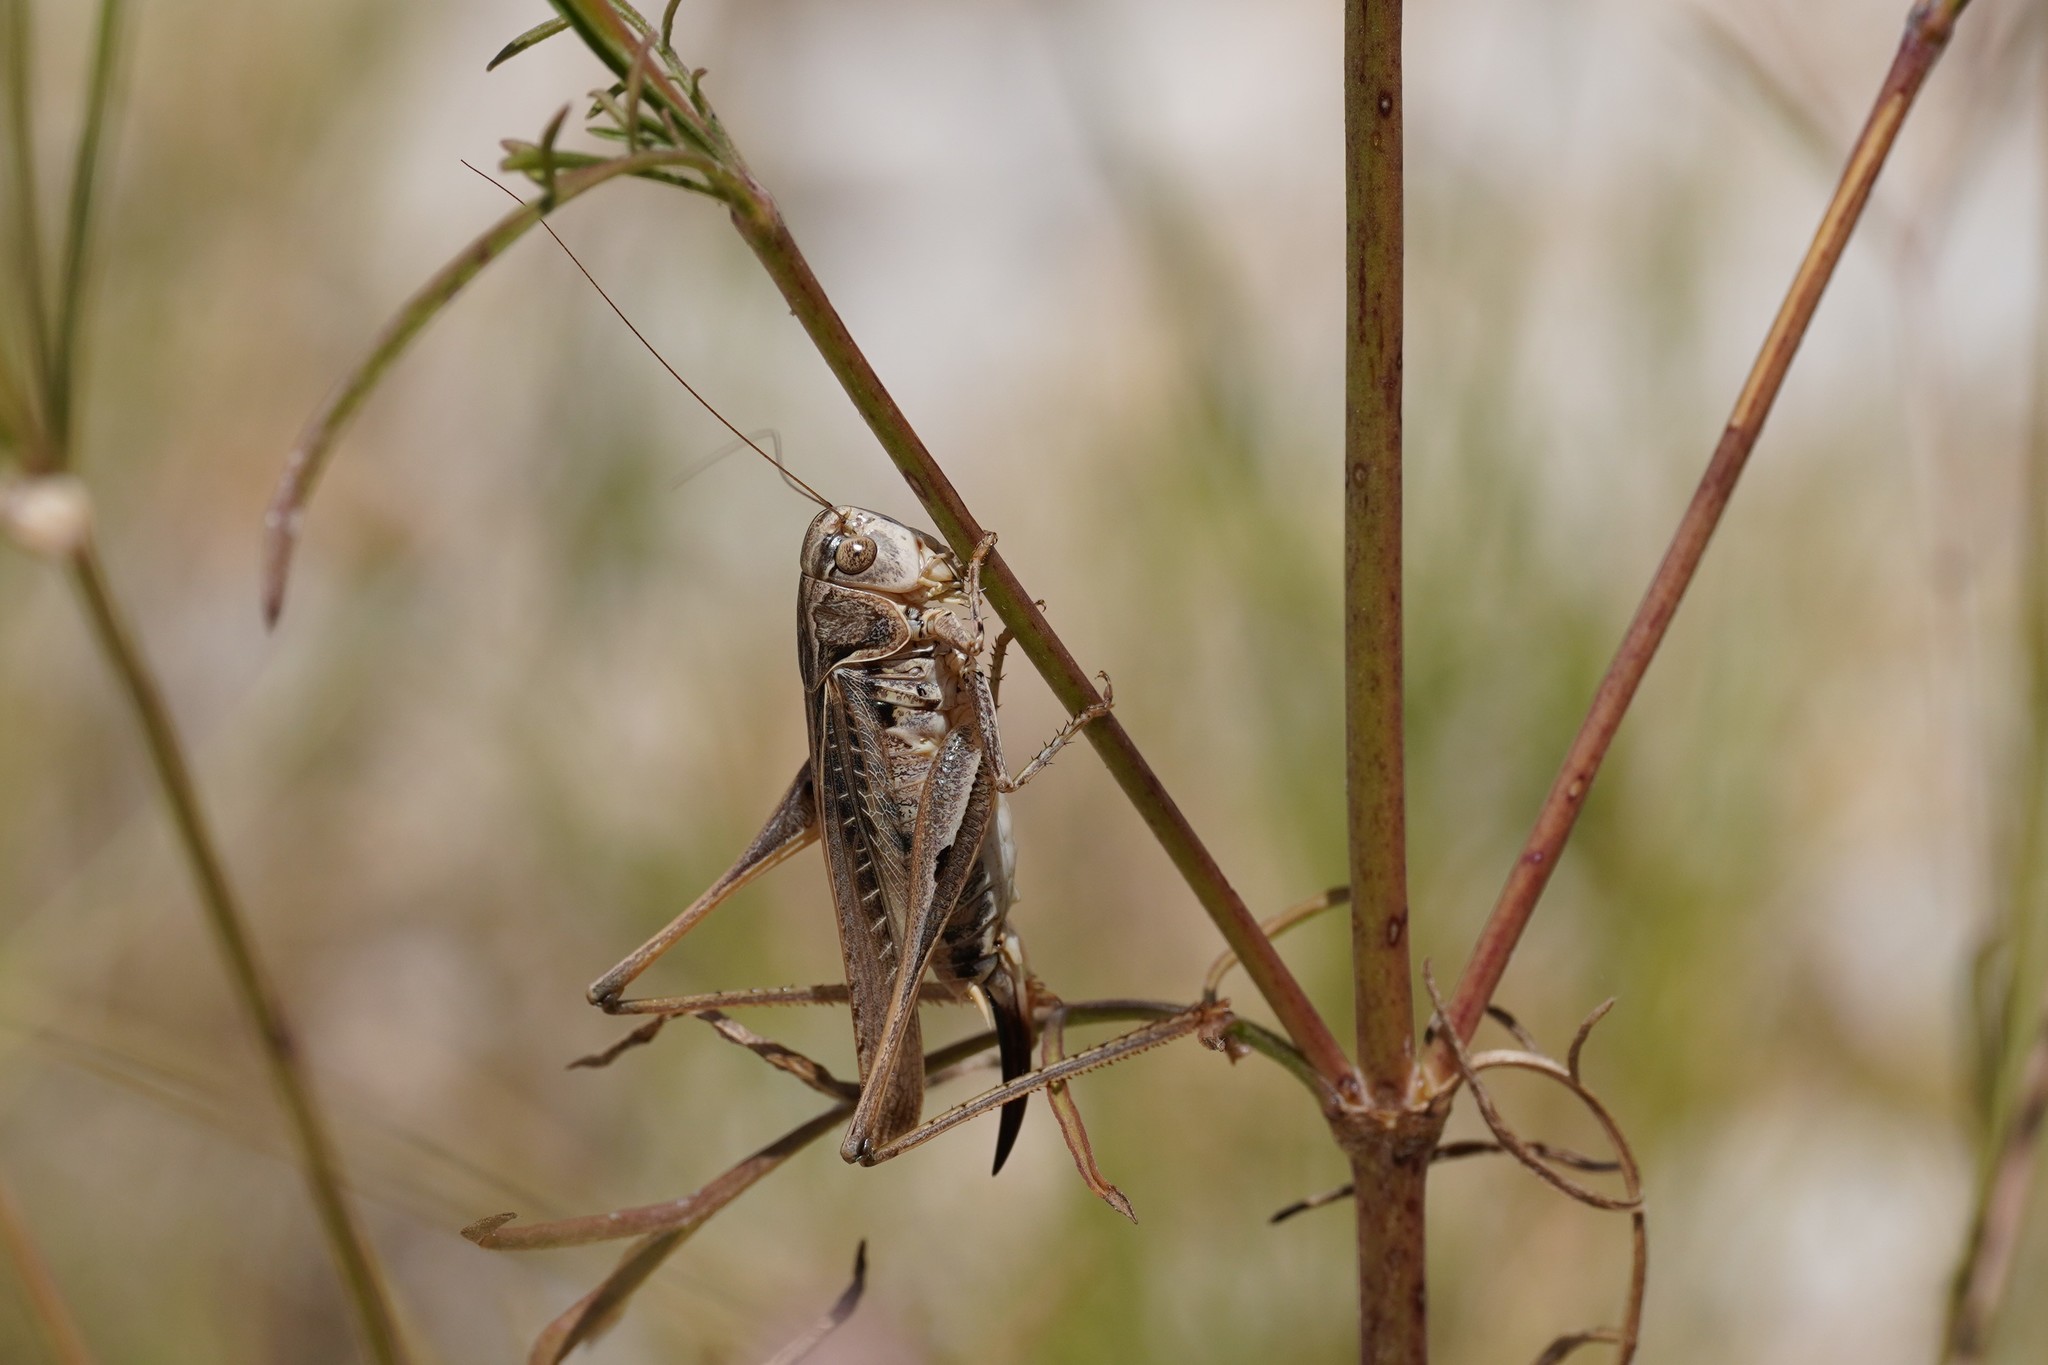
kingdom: Animalia
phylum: Arthropoda
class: Insecta
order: Orthoptera
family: Tettigoniidae
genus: Platycleis
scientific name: Platycleis affinis
